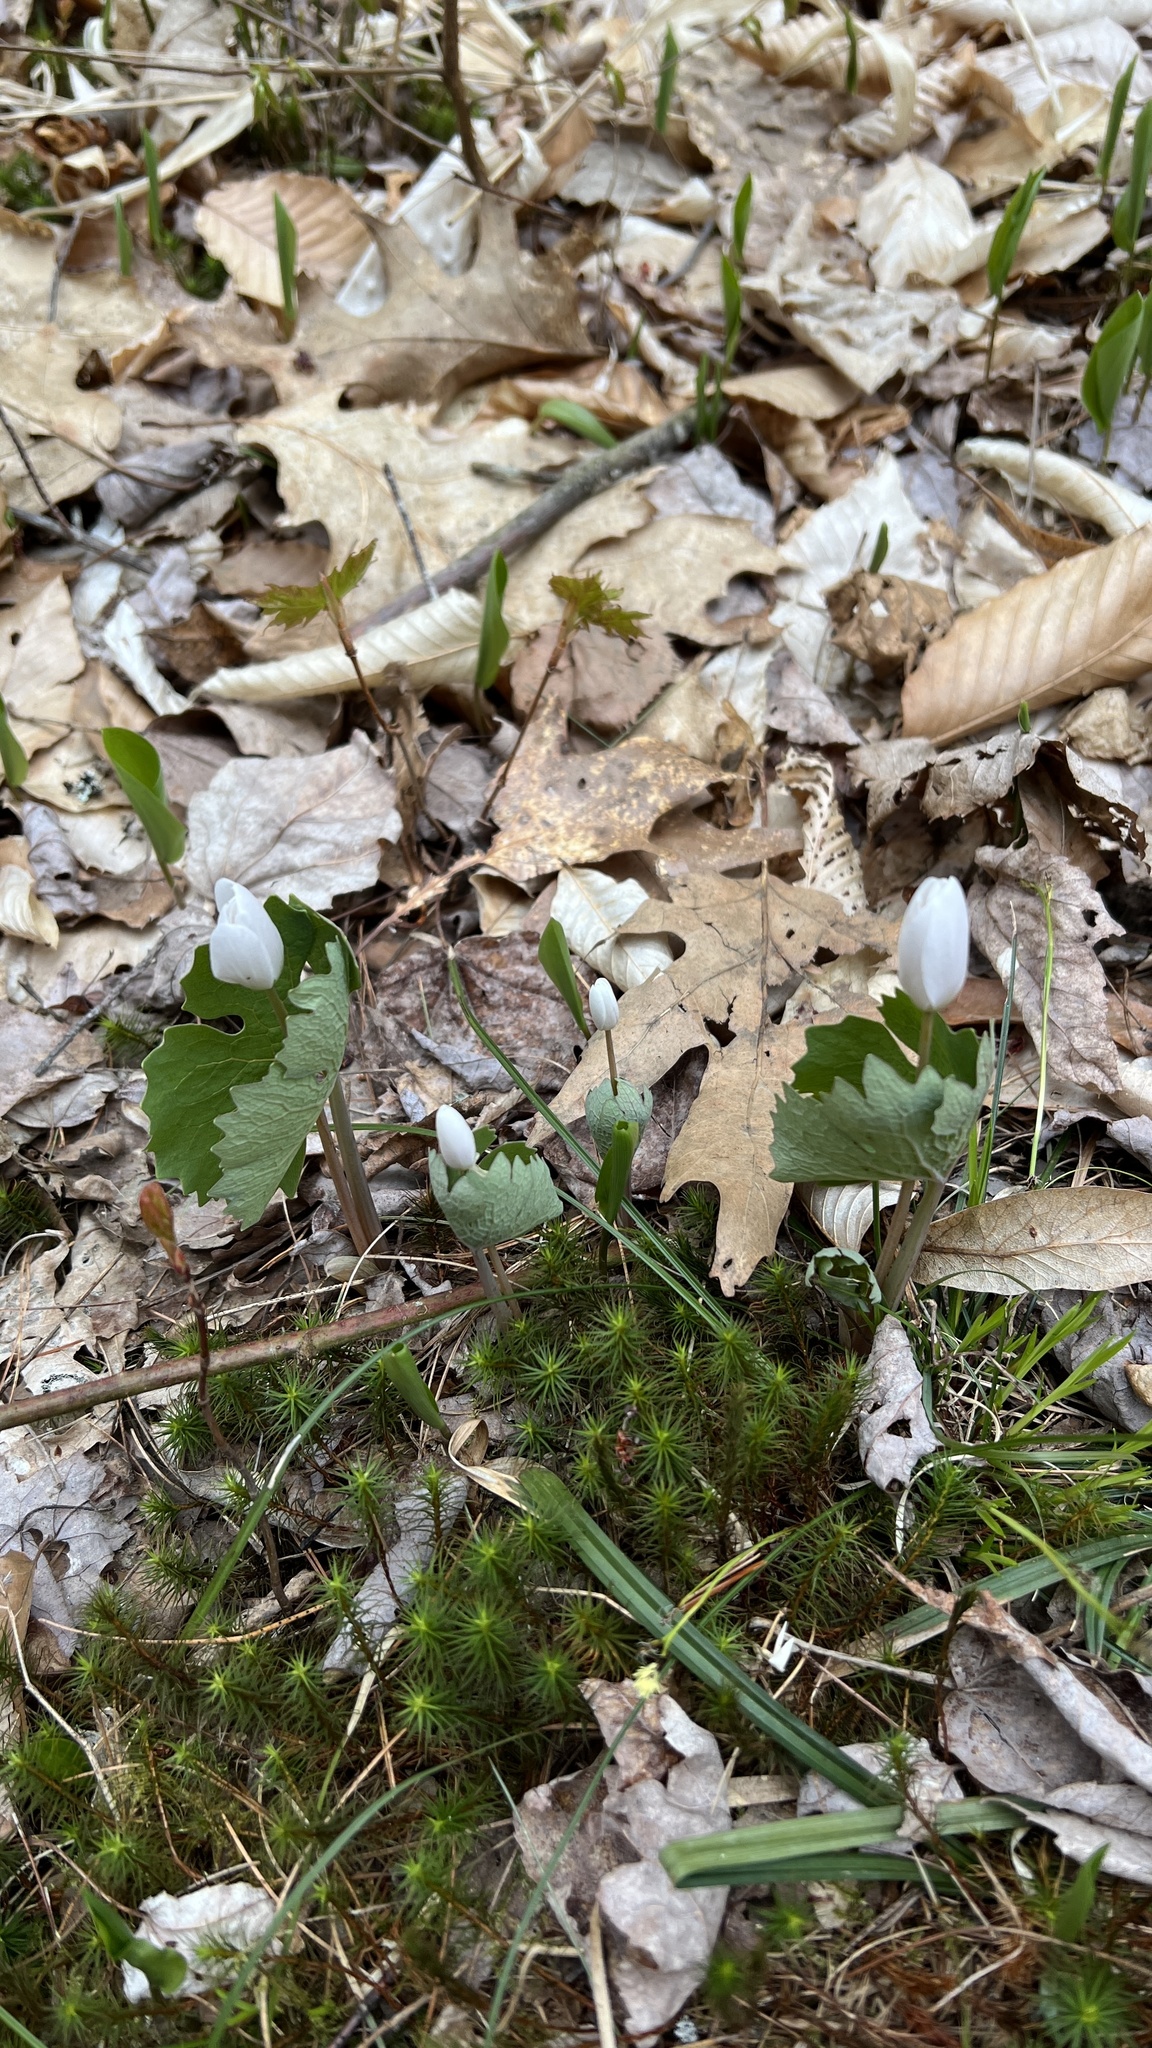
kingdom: Plantae
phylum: Tracheophyta
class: Magnoliopsida
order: Ranunculales
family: Papaveraceae
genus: Sanguinaria
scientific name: Sanguinaria canadensis
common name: Bloodroot
